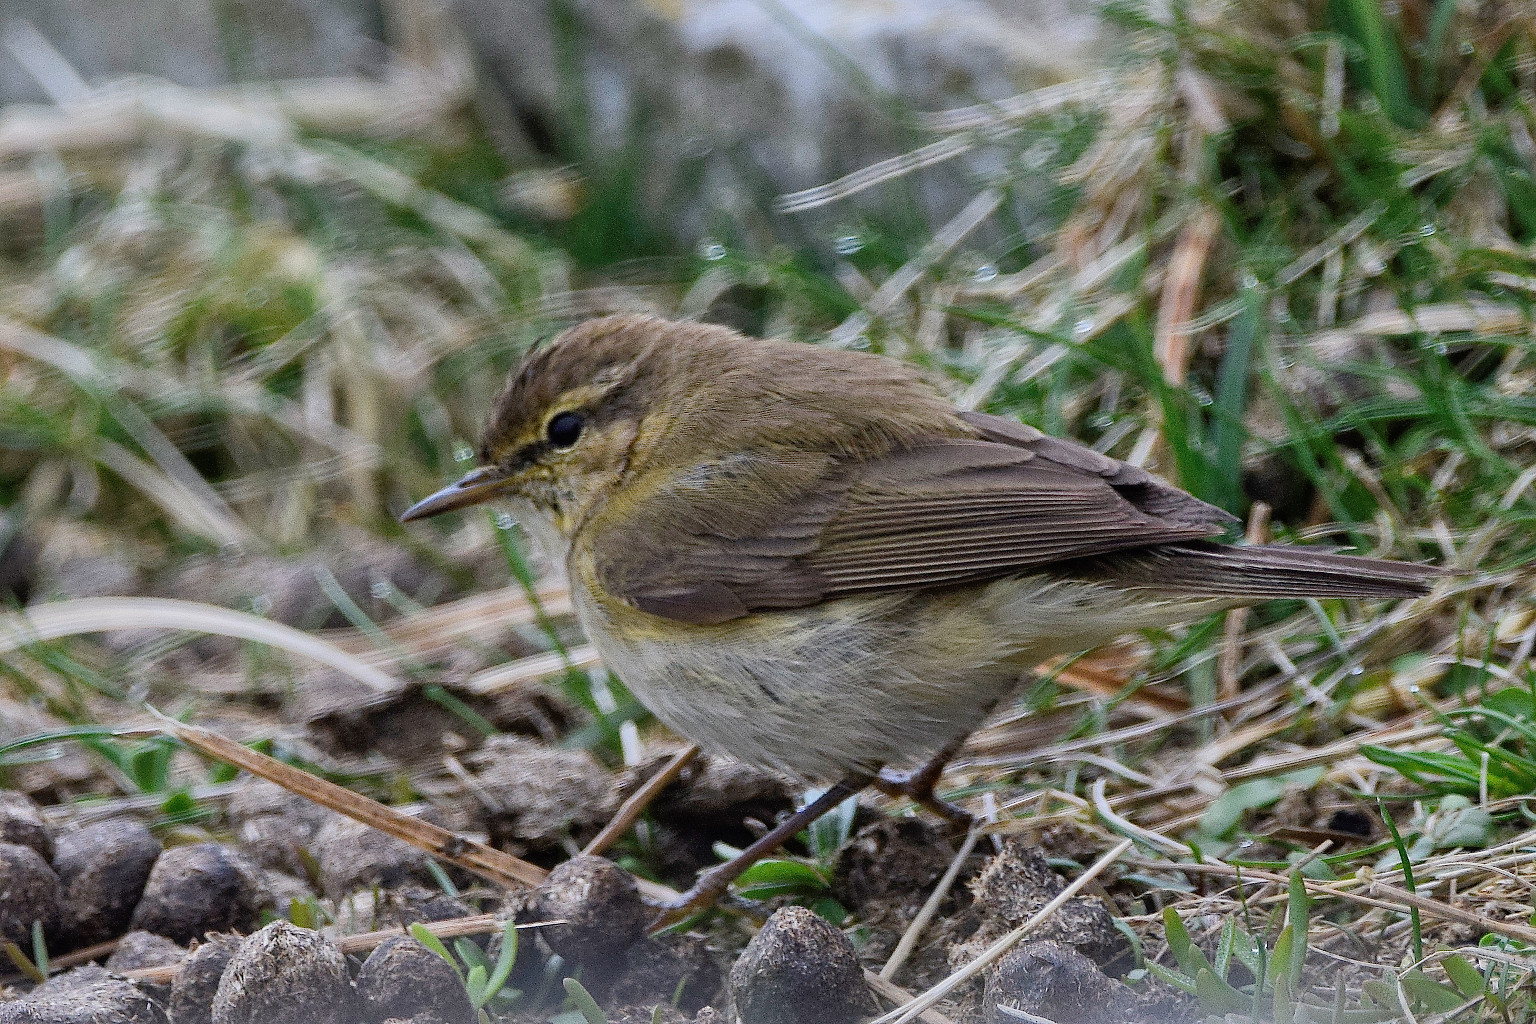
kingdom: Animalia
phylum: Chordata
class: Aves
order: Passeriformes
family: Phylloscopidae
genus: Phylloscopus
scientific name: Phylloscopus collybita
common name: Common chiffchaff
